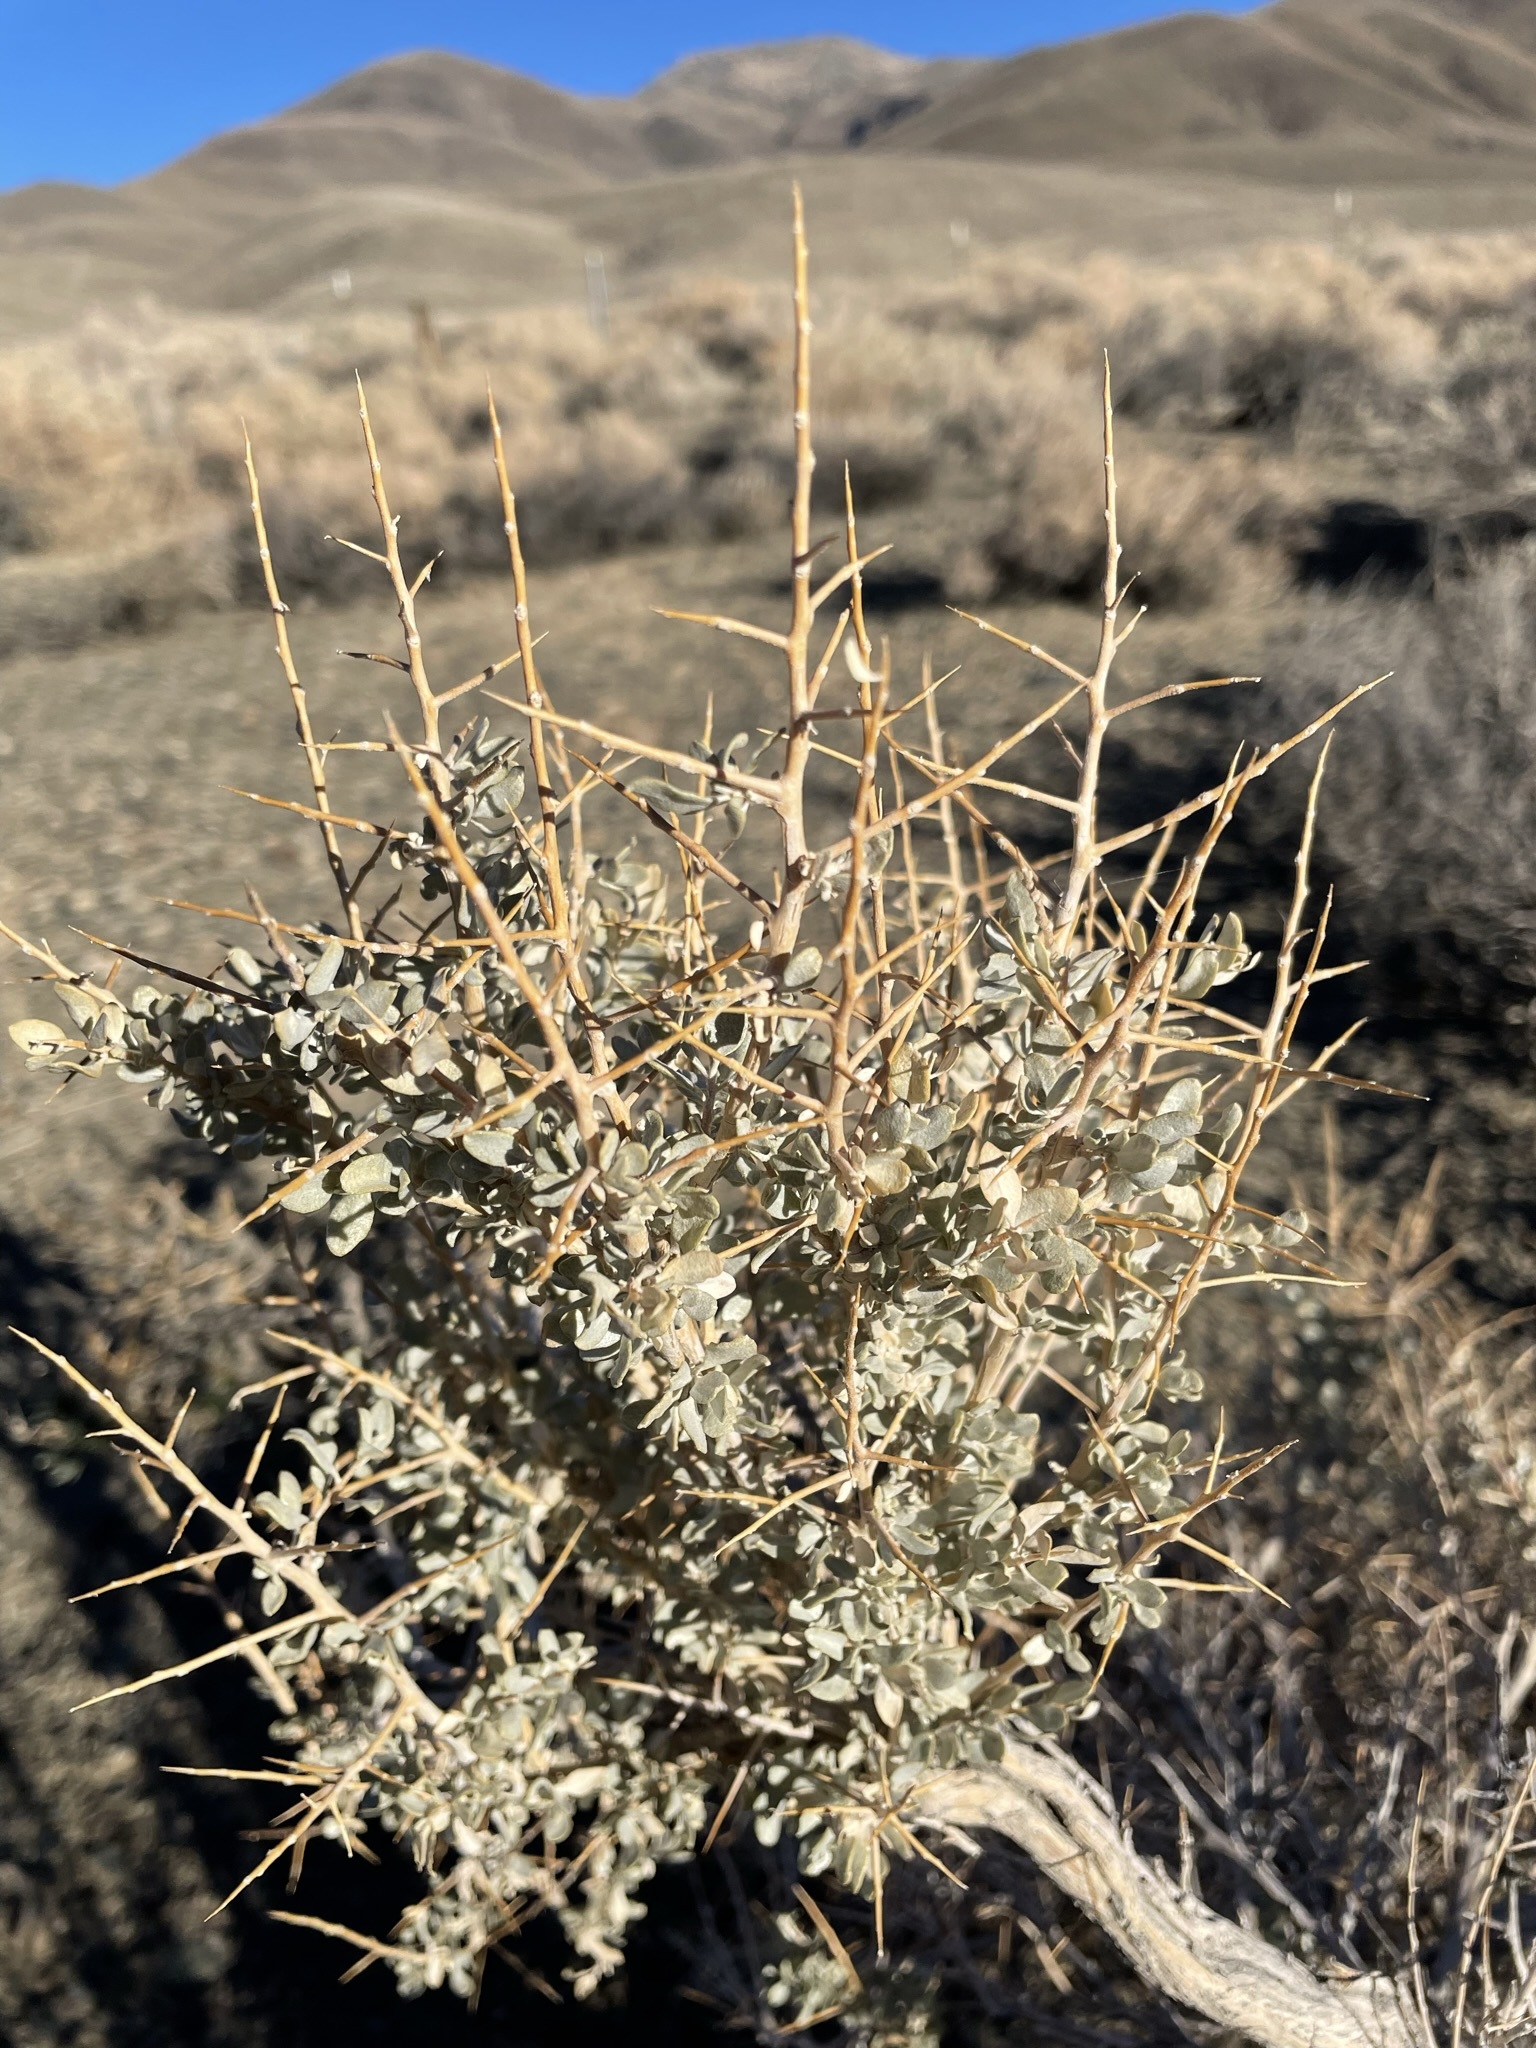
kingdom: Plantae
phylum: Tracheophyta
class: Magnoliopsida
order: Caryophyllales
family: Amaranthaceae
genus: Atriplex
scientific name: Atriplex confertifolia
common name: Shadscale
